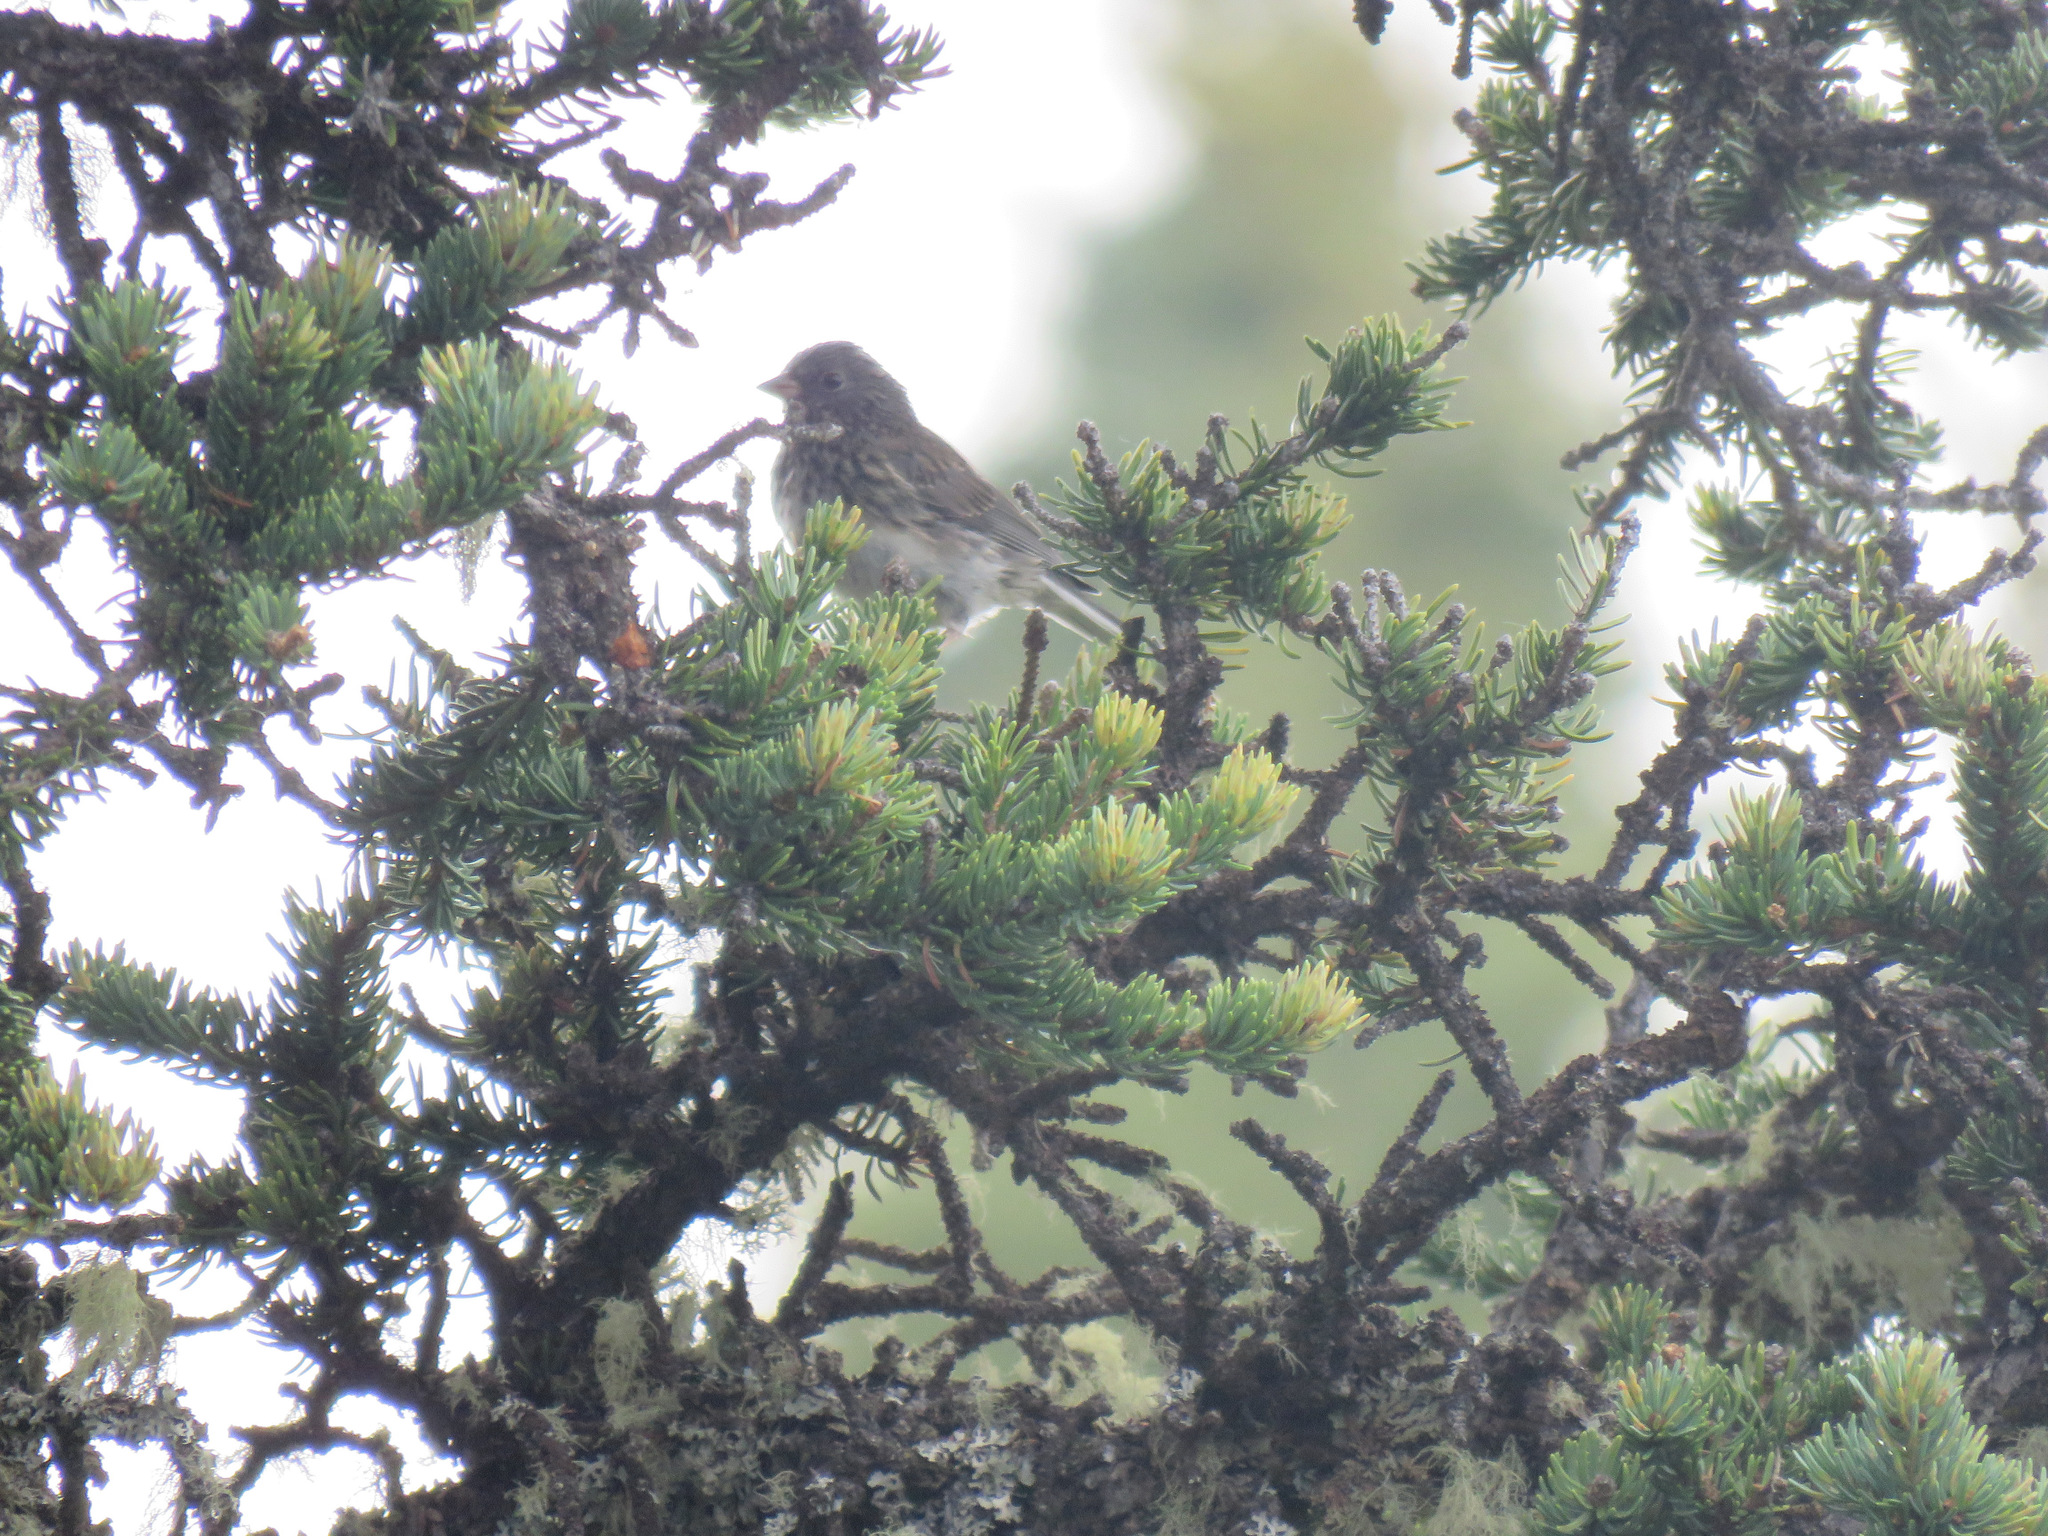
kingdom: Animalia
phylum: Chordata
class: Aves
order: Passeriformes
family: Passerellidae
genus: Junco
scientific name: Junco hyemalis
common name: Dark-eyed junco
